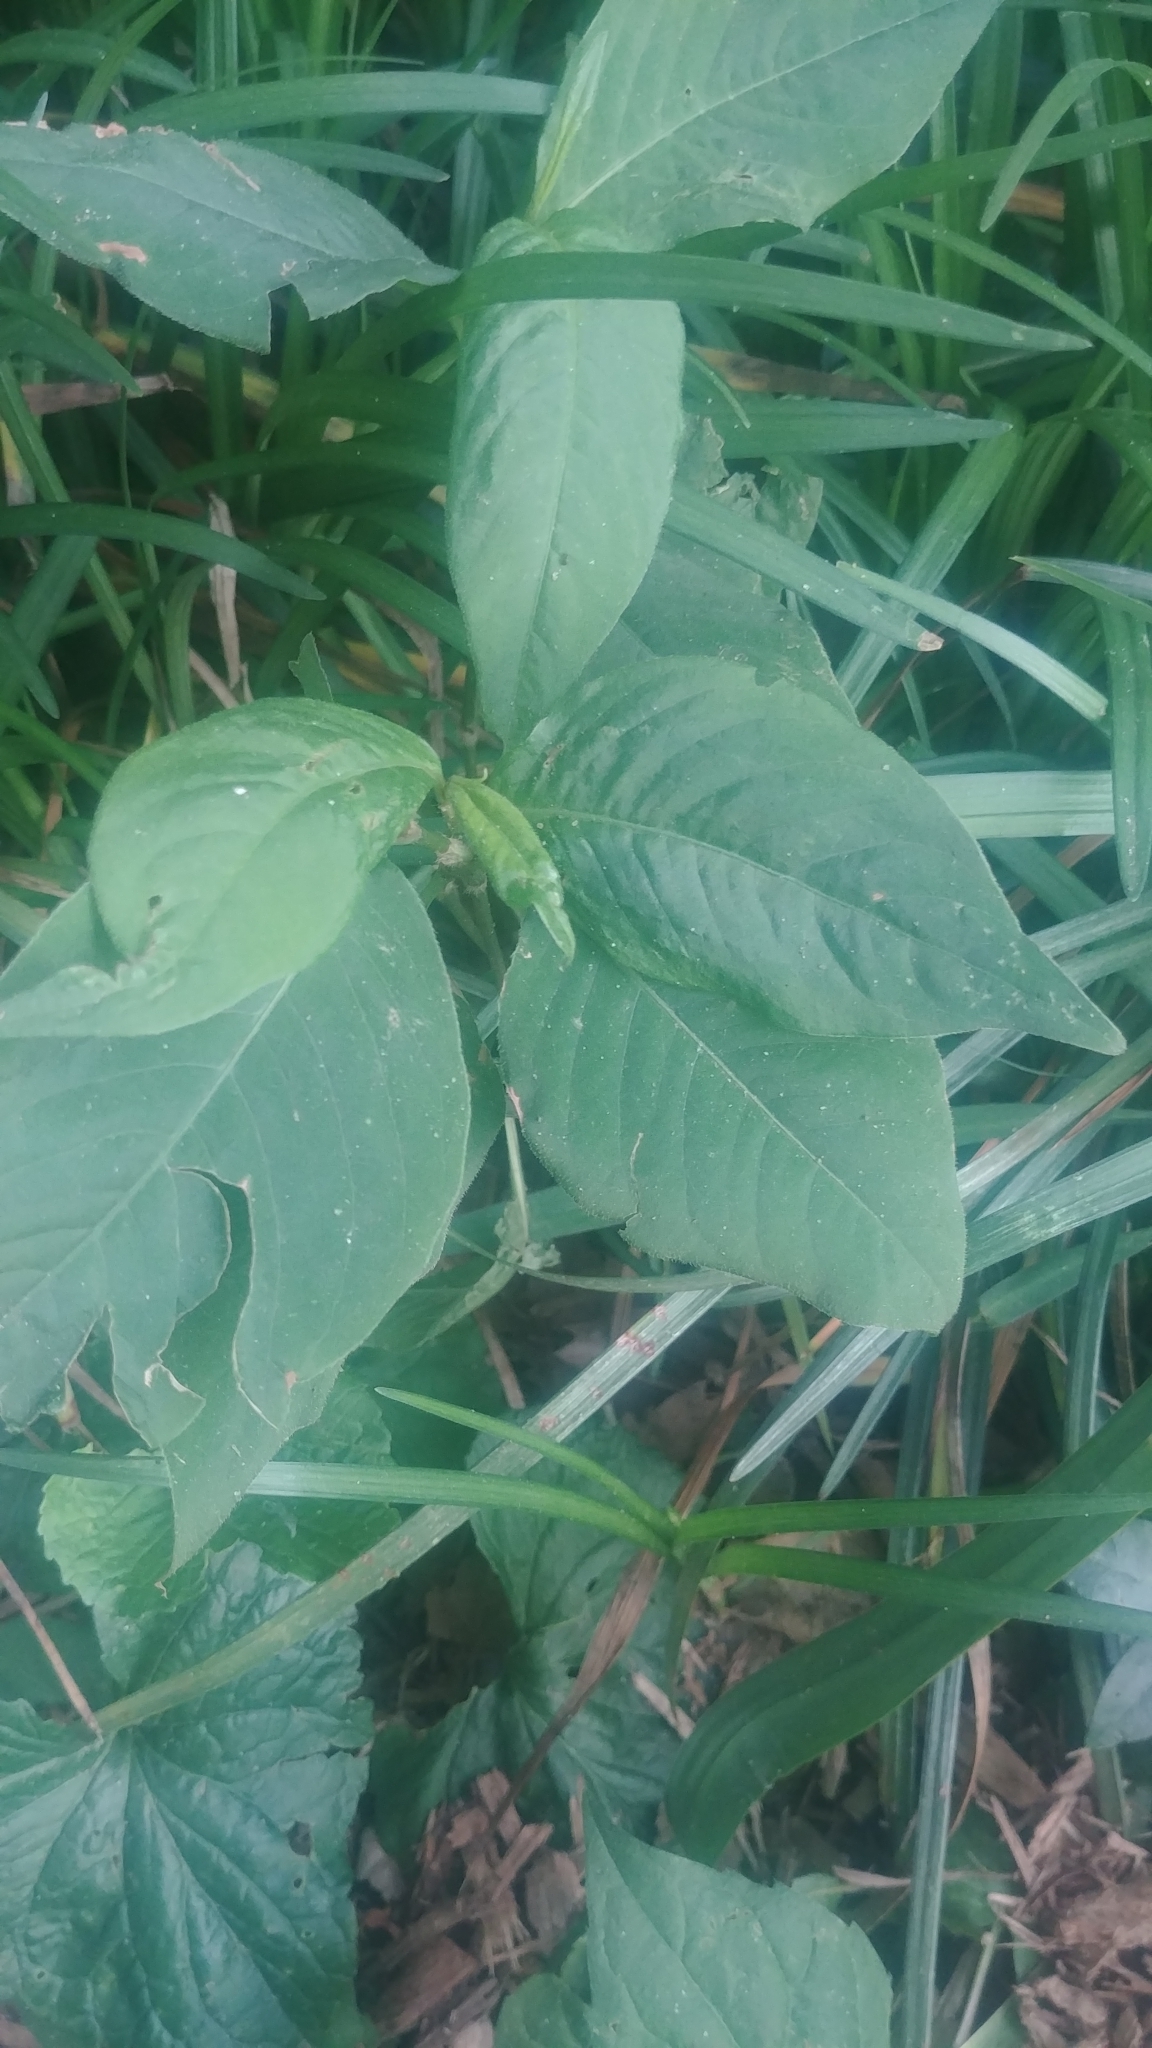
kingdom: Plantae
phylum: Tracheophyta
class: Magnoliopsida
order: Caryophyllales
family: Polygonaceae
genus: Persicaria
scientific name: Persicaria virginiana
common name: Jumpseed
